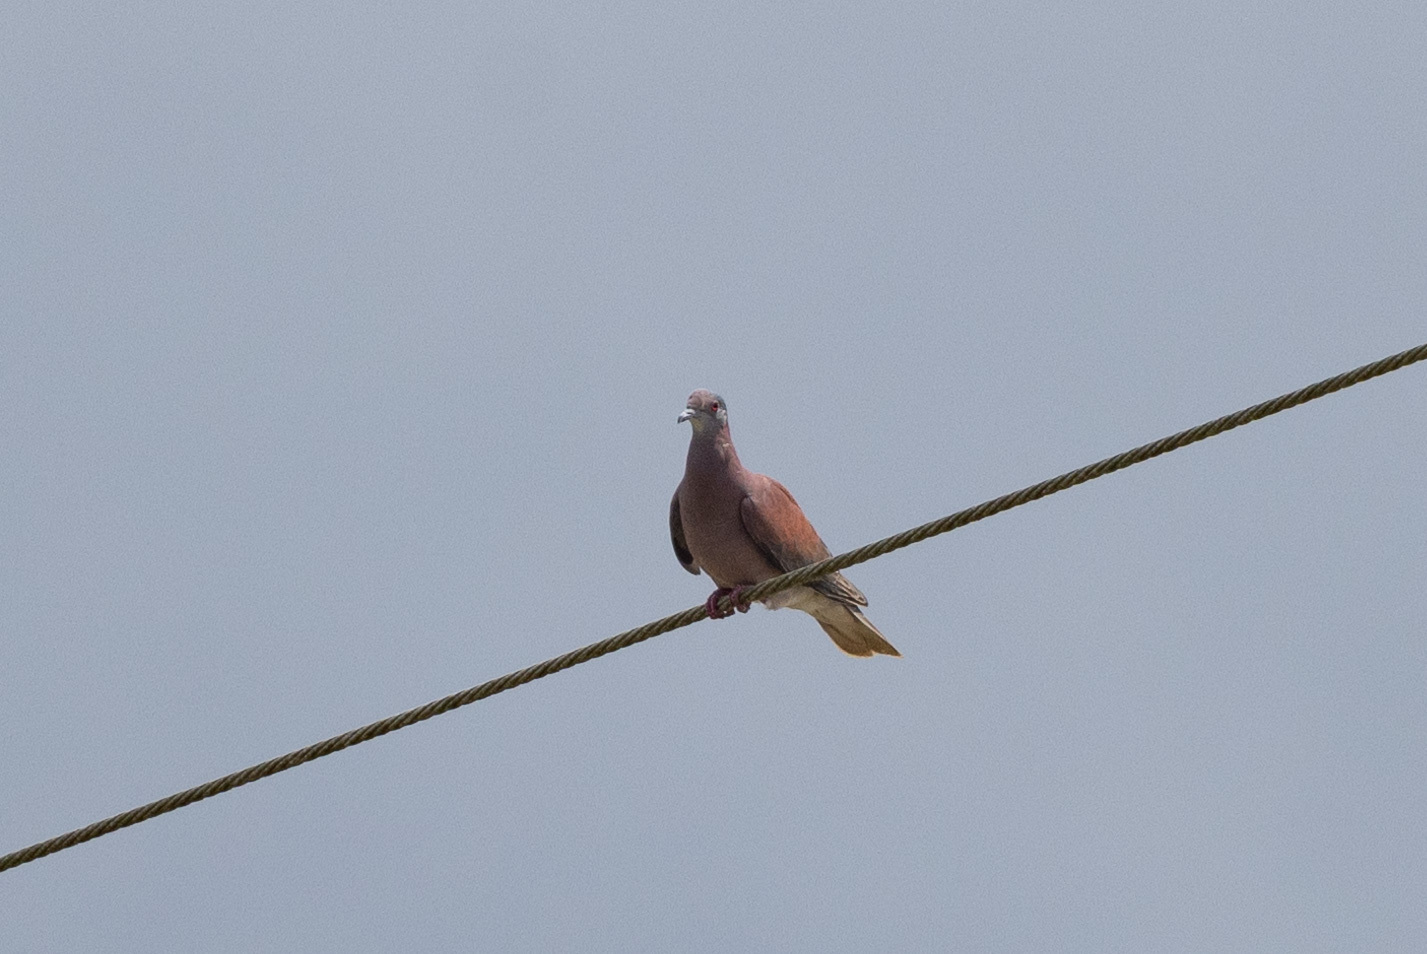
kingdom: Animalia
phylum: Chordata
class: Aves
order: Columbiformes
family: Columbidae
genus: Patagioenas
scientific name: Patagioenas cayennensis
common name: Pale-vented pigeon
